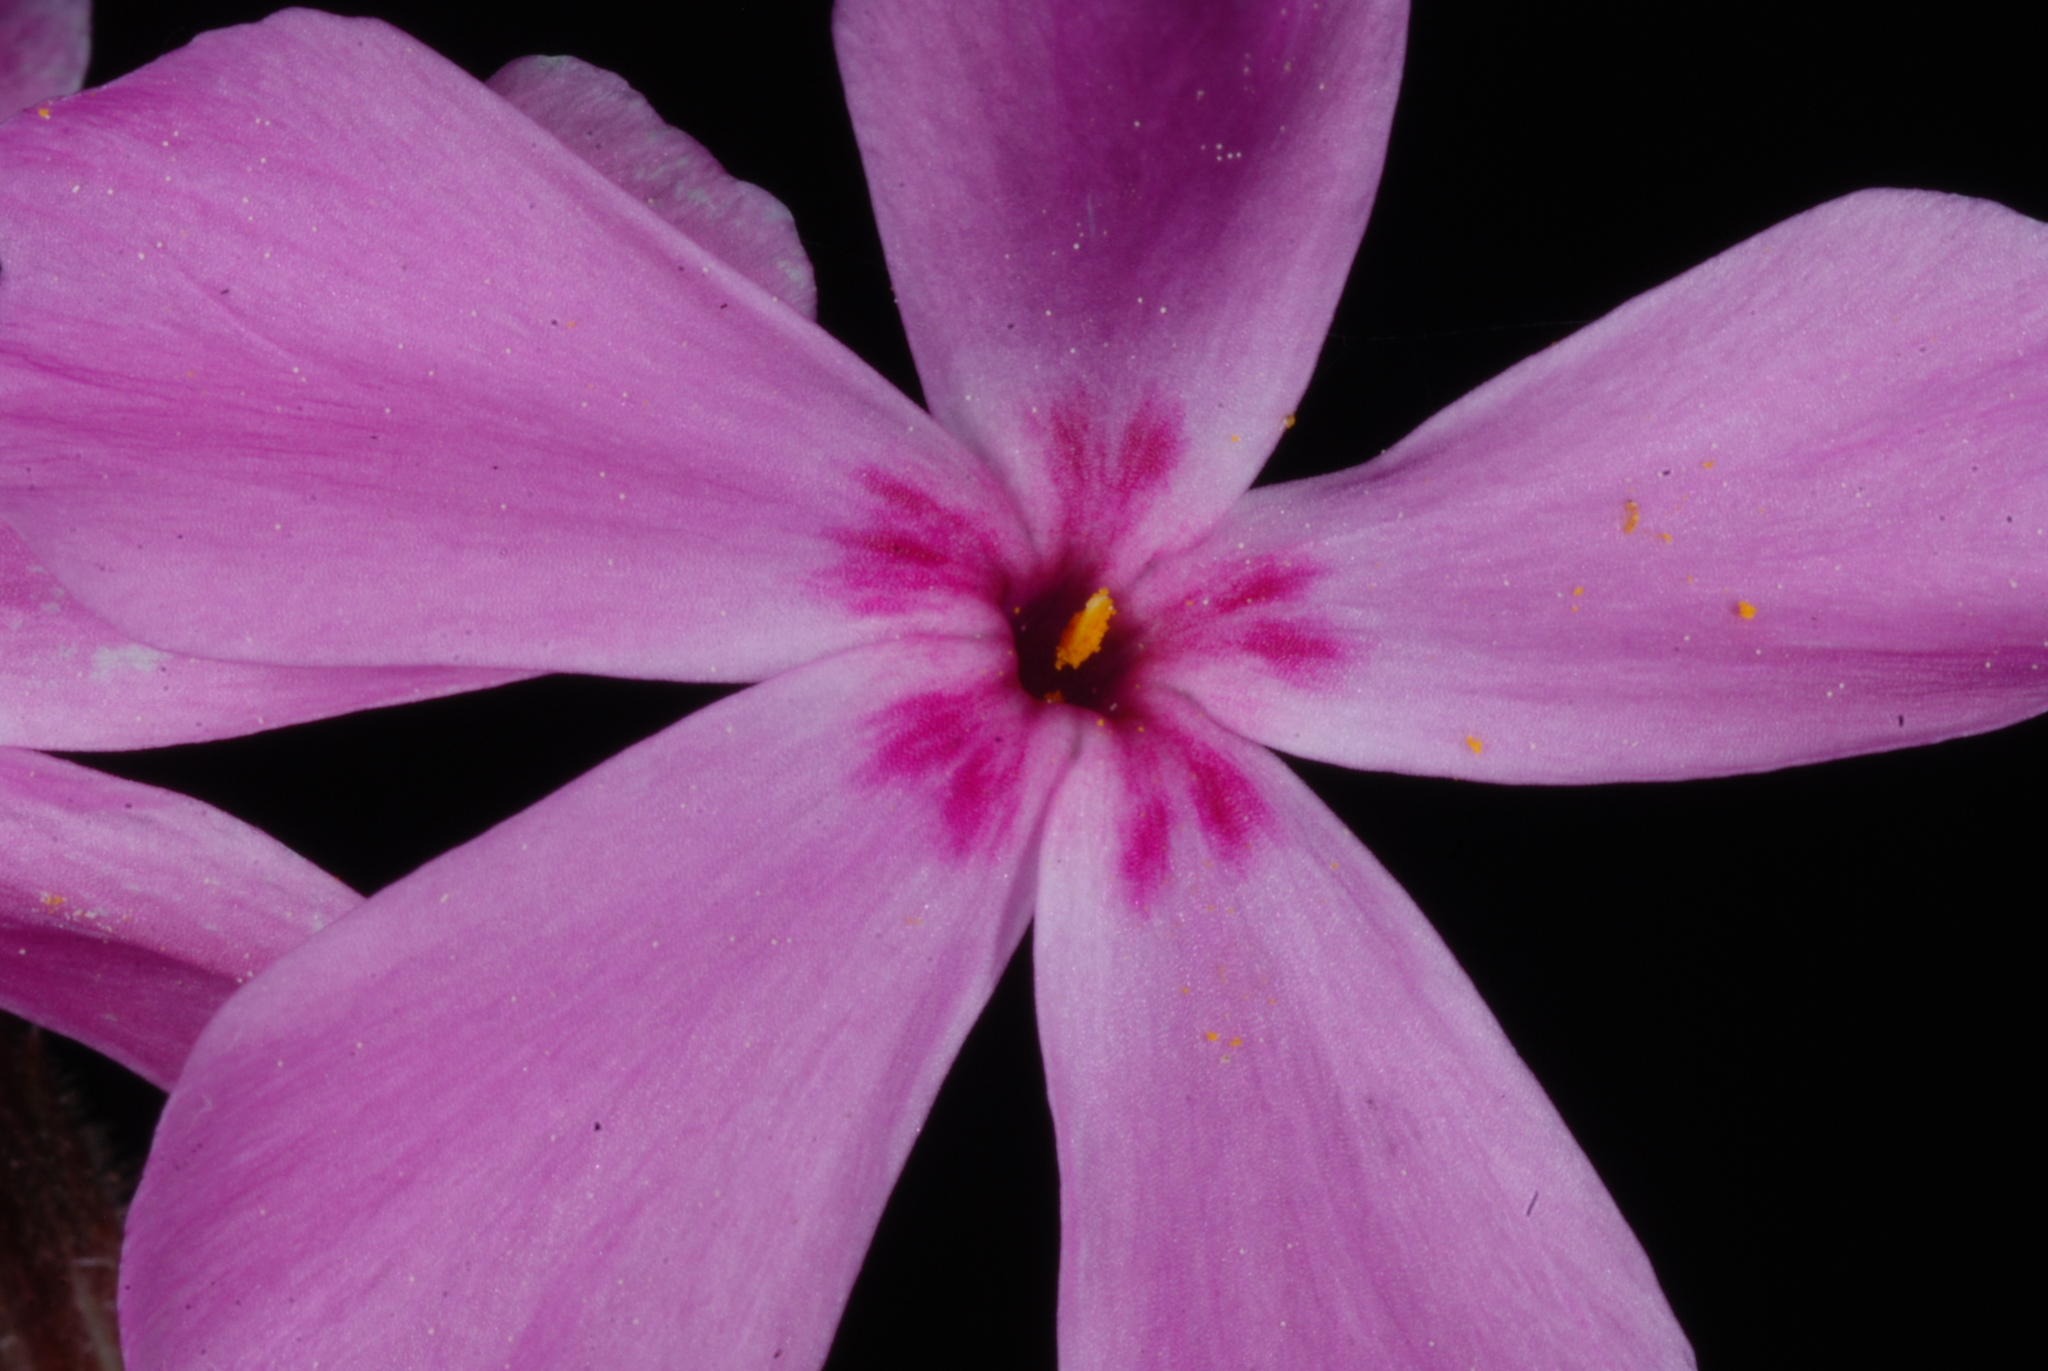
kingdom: Plantae
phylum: Tracheophyta
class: Magnoliopsida
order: Ericales
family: Polemoniaceae
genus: Phlox
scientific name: Phlox nivalis
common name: Trailing phlox
